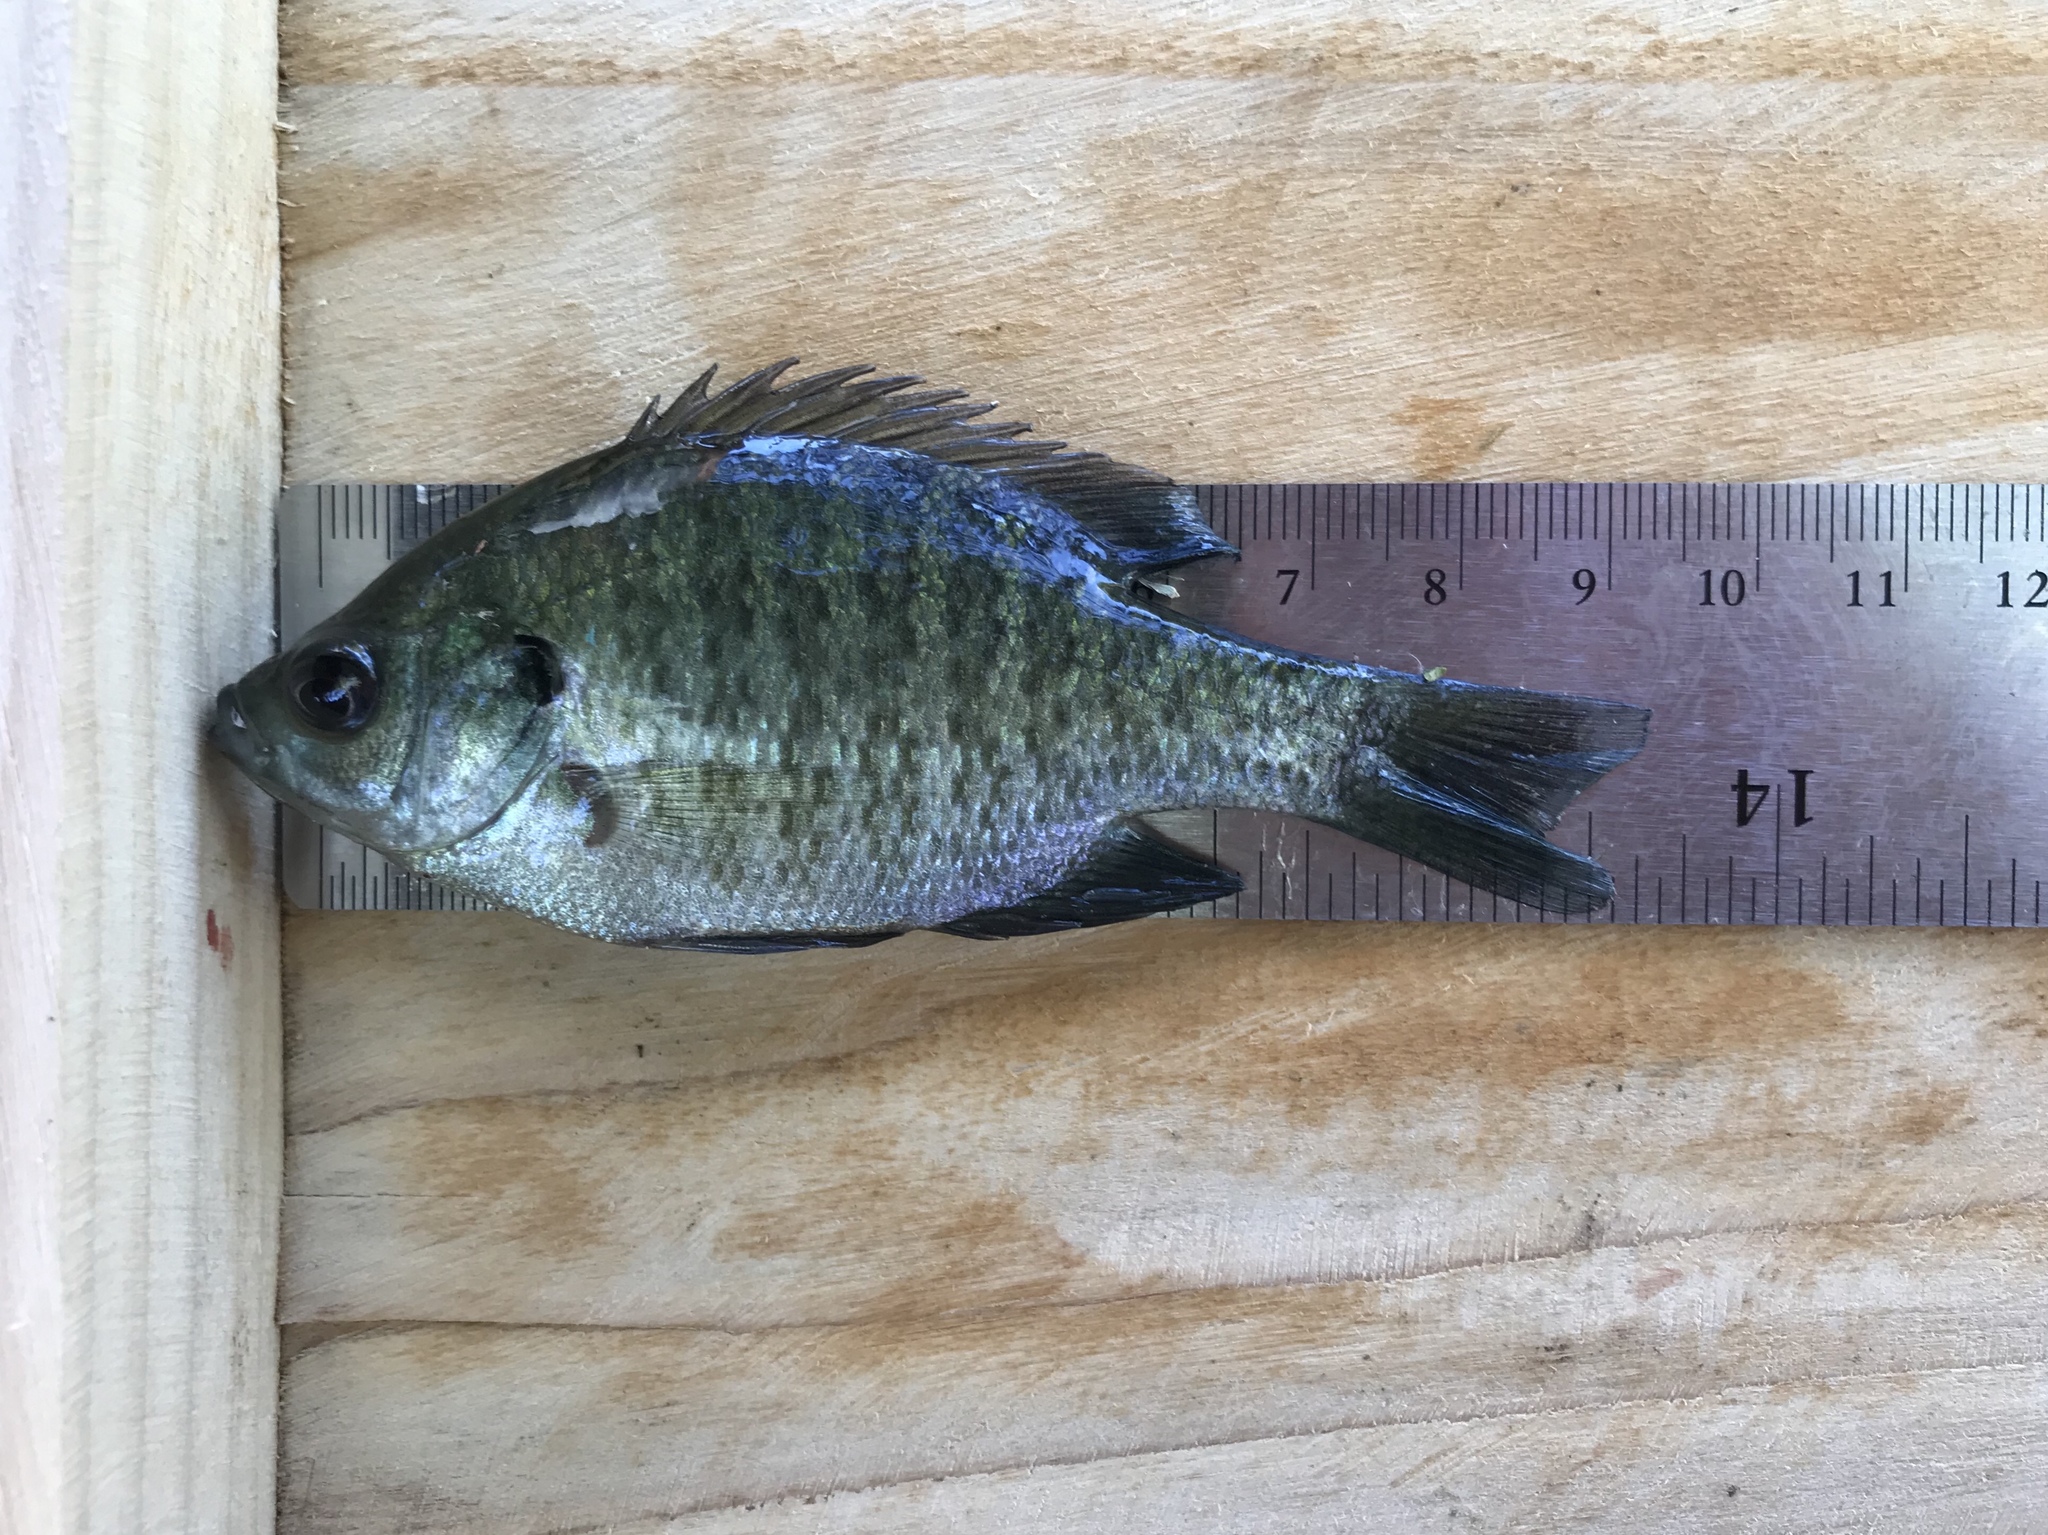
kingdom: Animalia
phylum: Chordata
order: Perciformes
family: Centrarchidae
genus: Lepomis
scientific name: Lepomis macrochirus
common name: Bluegill
